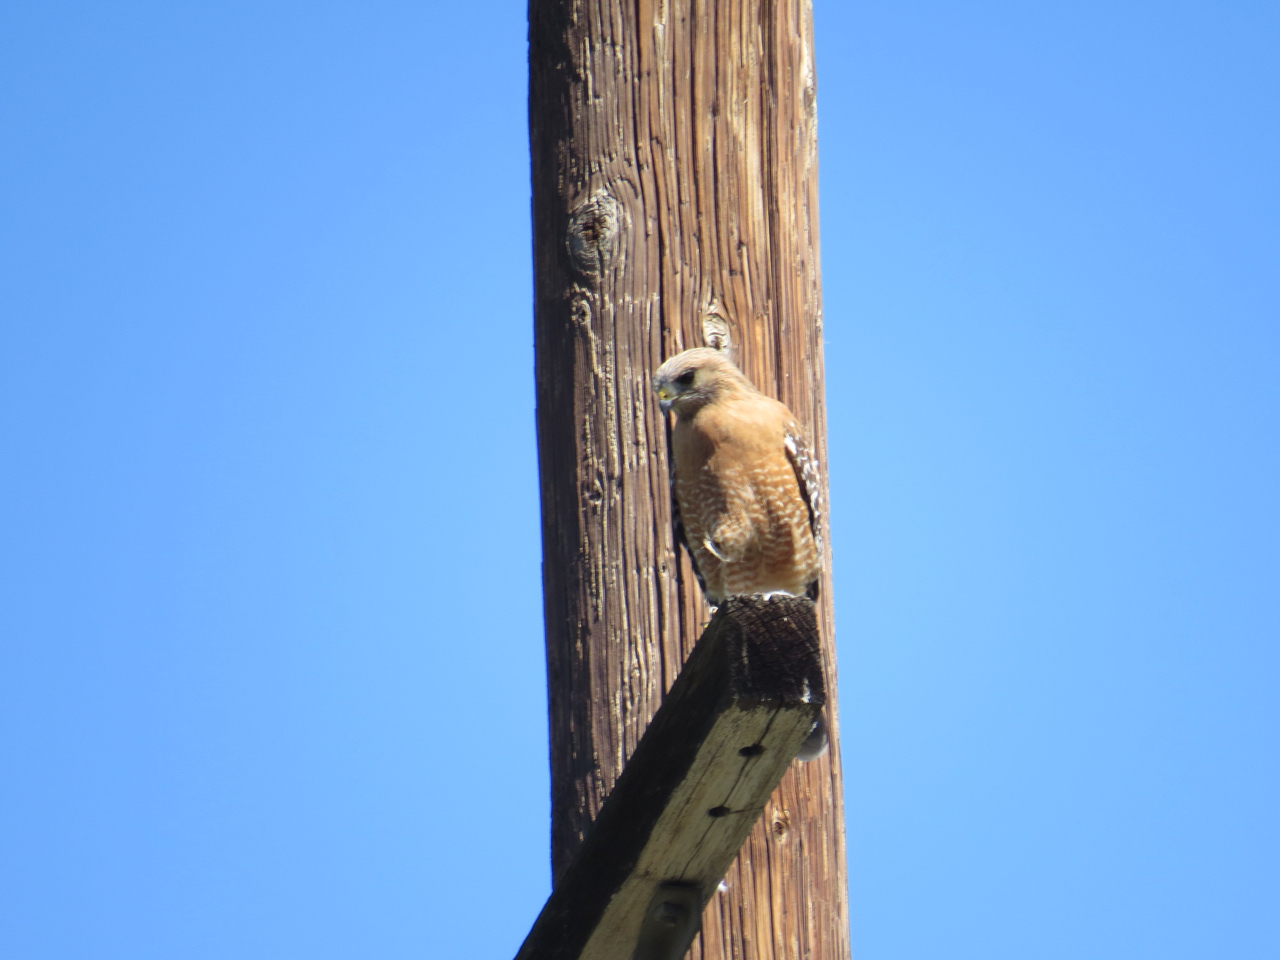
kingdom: Animalia
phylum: Chordata
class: Aves
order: Accipitriformes
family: Accipitridae
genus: Buteo
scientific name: Buteo lineatus
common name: Red-shouldered hawk
